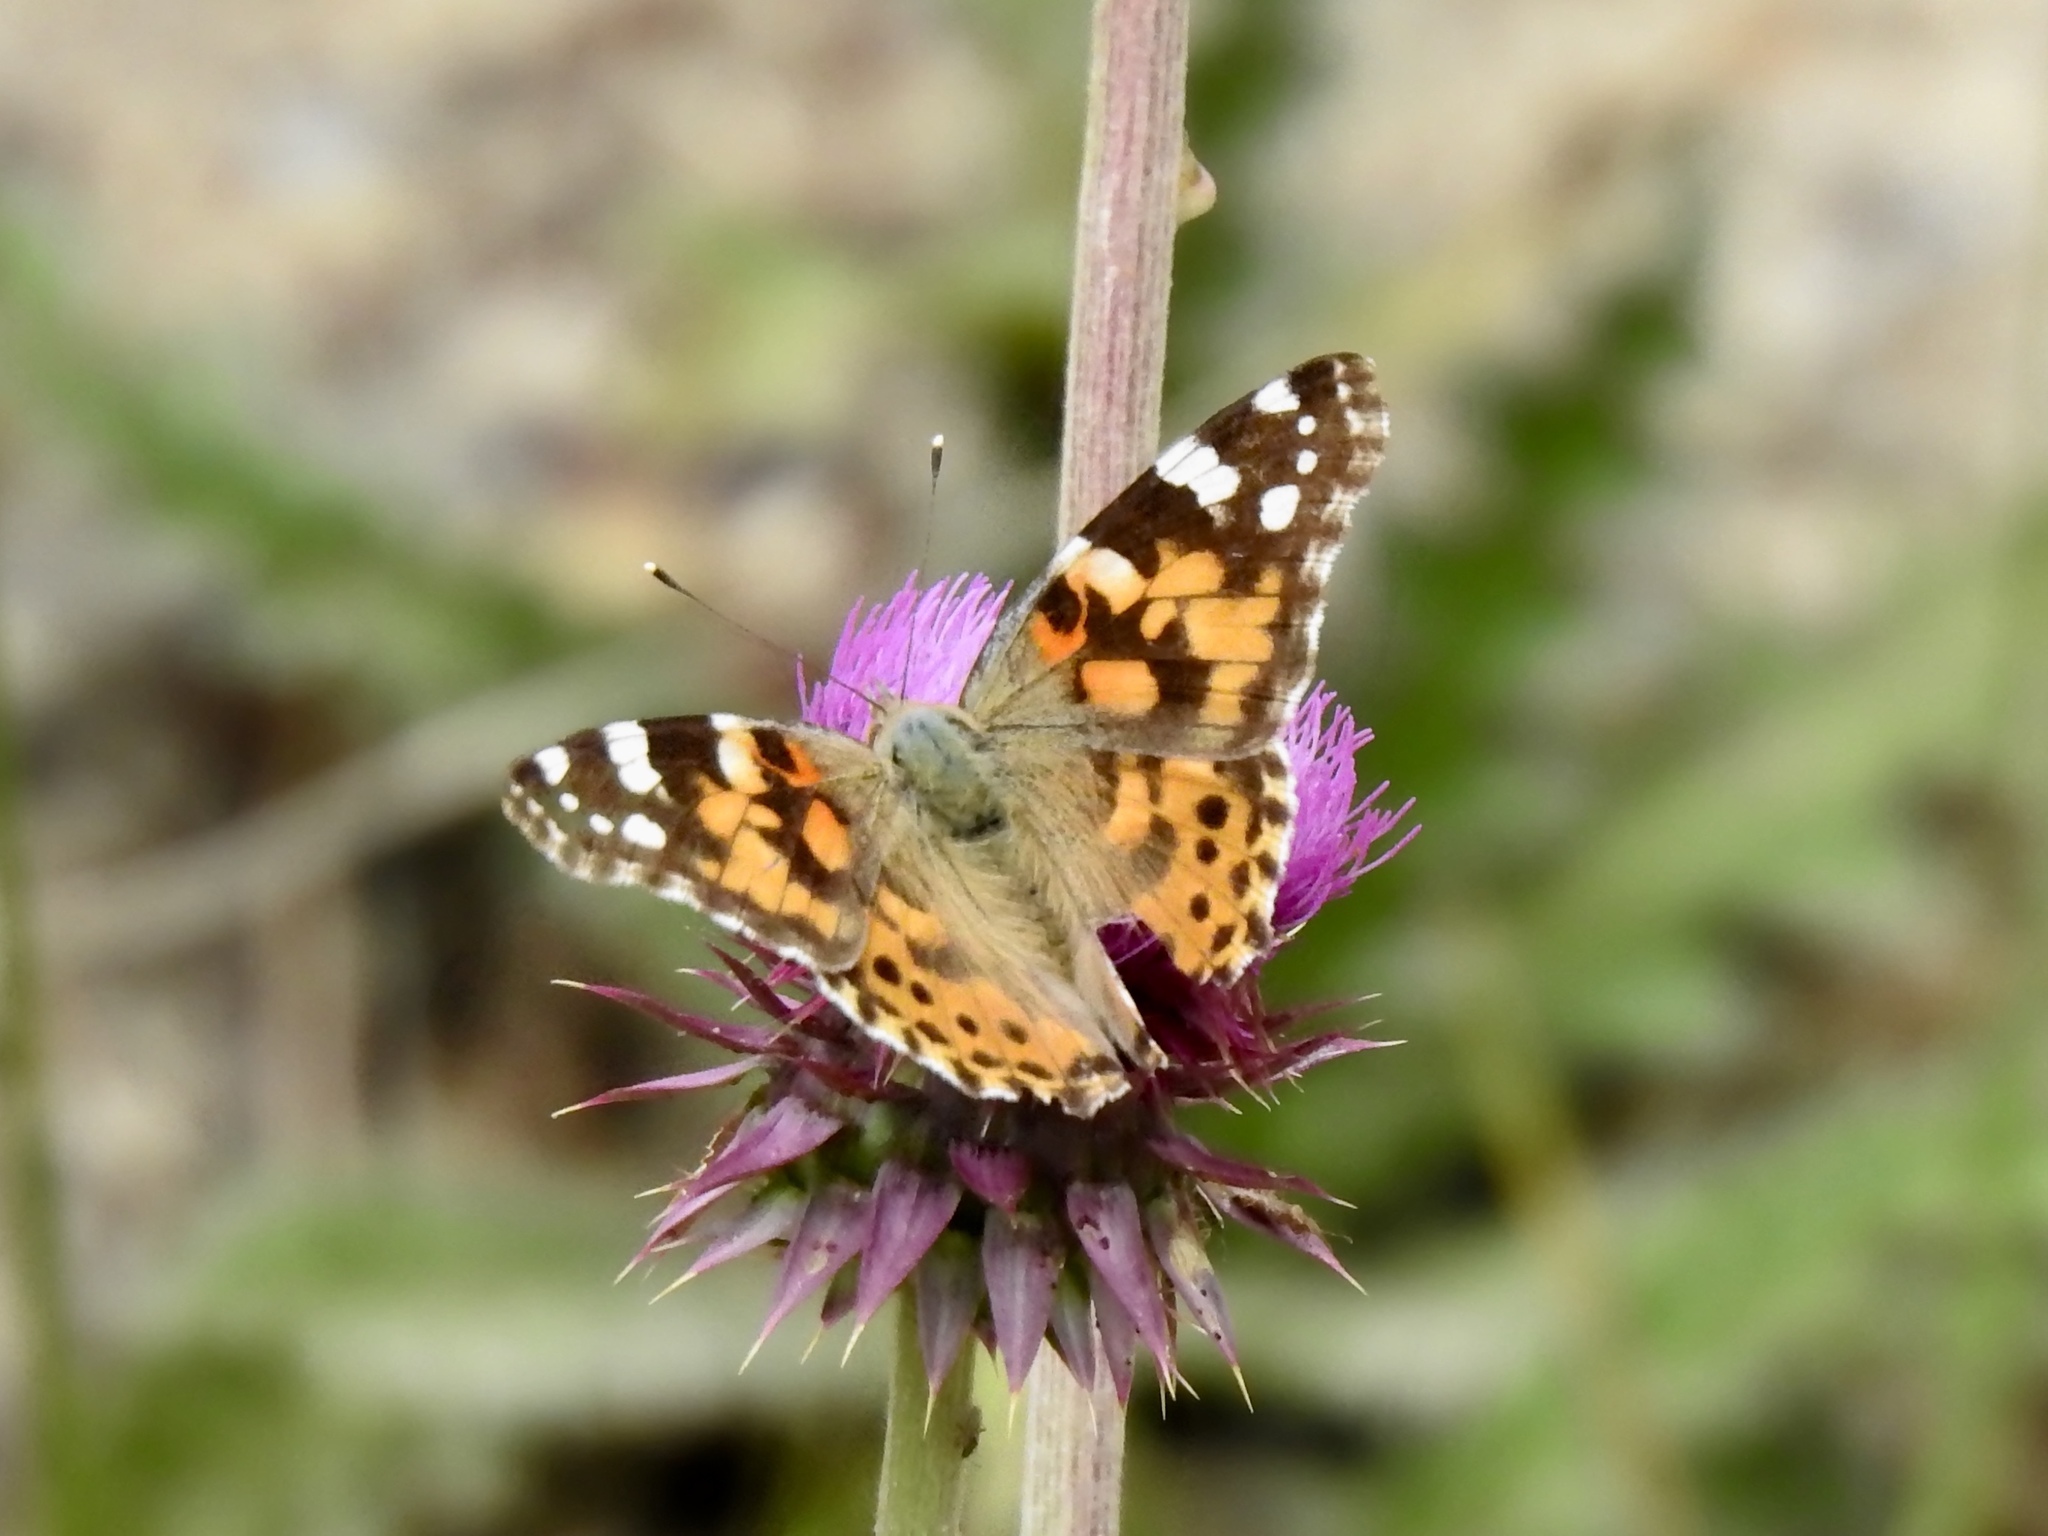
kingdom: Animalia
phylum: Arthropoda
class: Insecta
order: Lepidoptera
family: Nymphalidae
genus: Vanessa
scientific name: Vanessa cardui
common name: Painted lady
